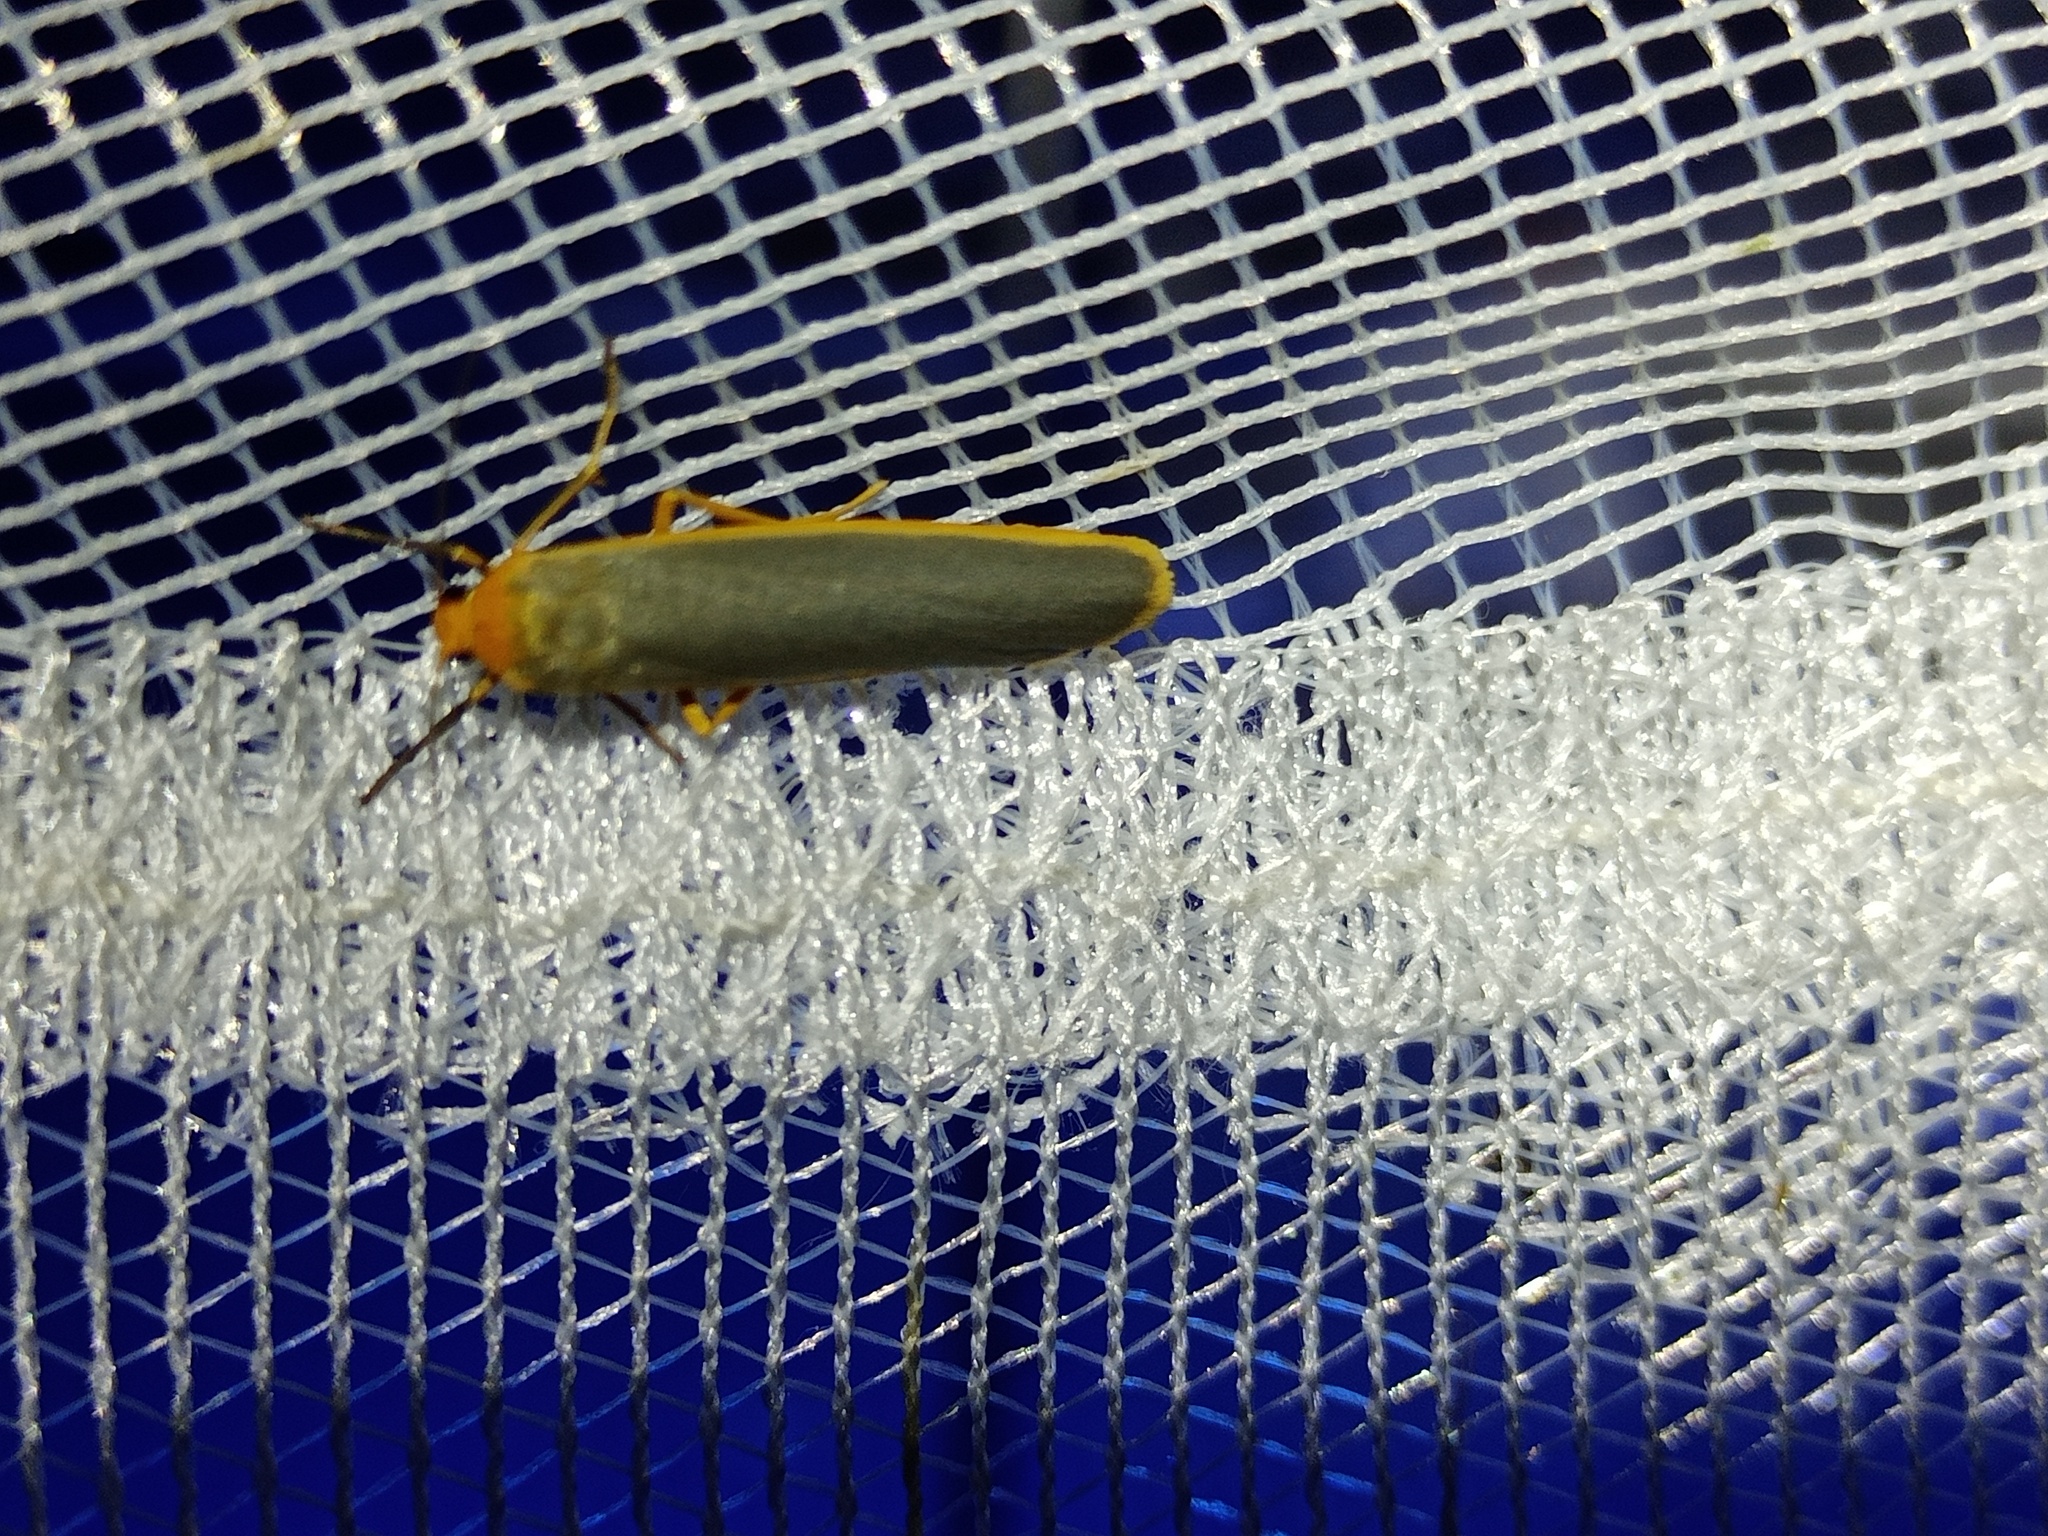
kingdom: Animalia
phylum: Arthropoda
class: Insecta
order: Lepidoptera
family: Erebidae
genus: Manulea
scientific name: Manulea complana
